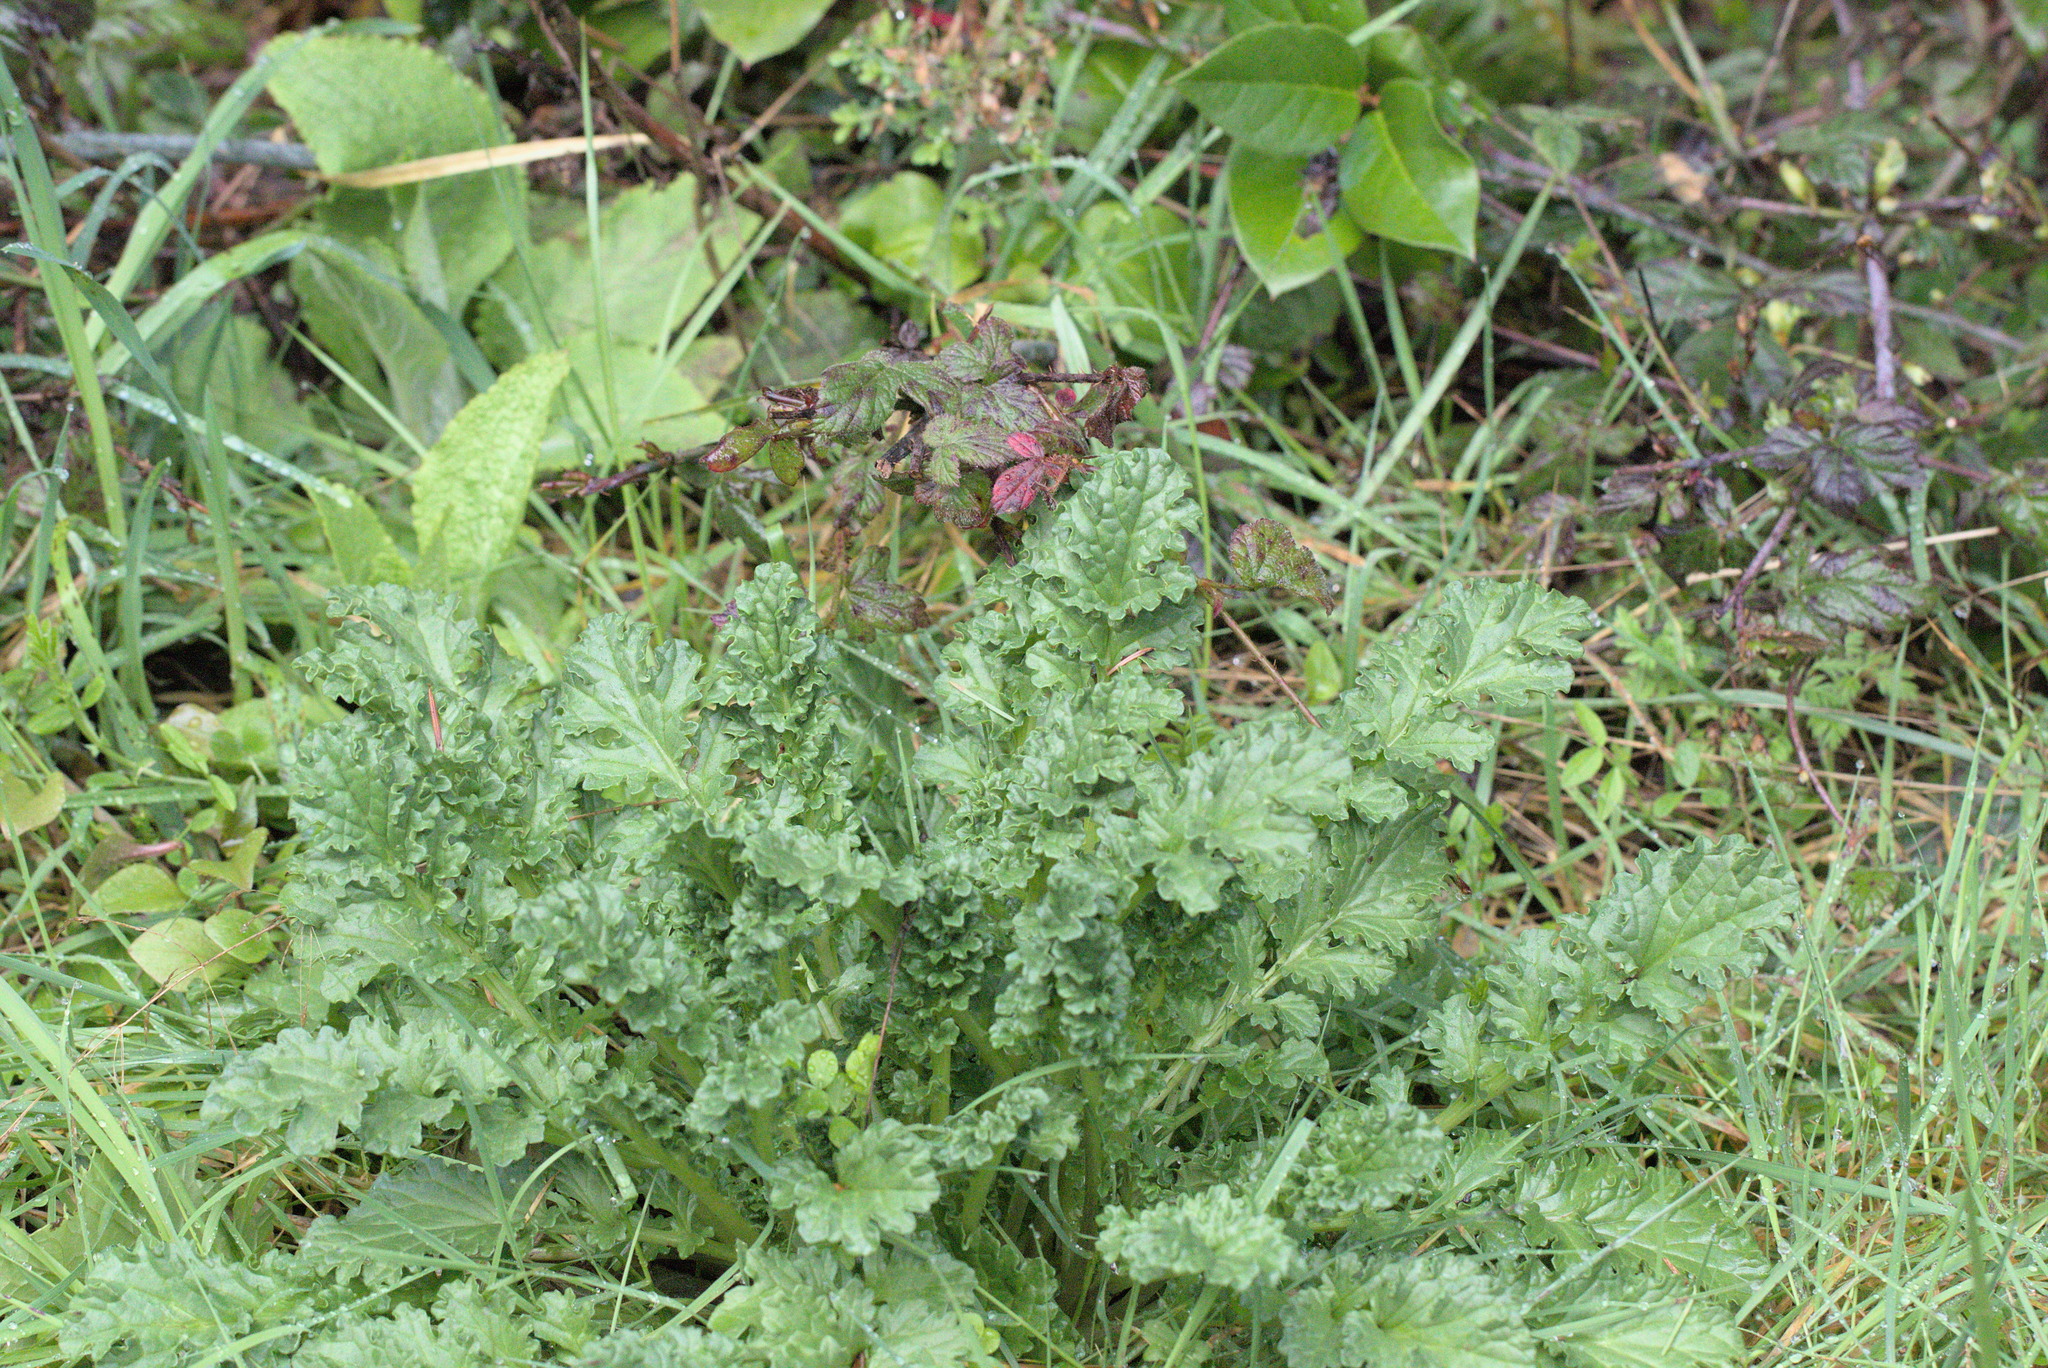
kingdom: Plantae
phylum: Tracheophyta
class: Magnoliopsida
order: Asterales
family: Asteraceae
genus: Jacobaea
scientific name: Jacobaea vulgaris
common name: Stinking willie
